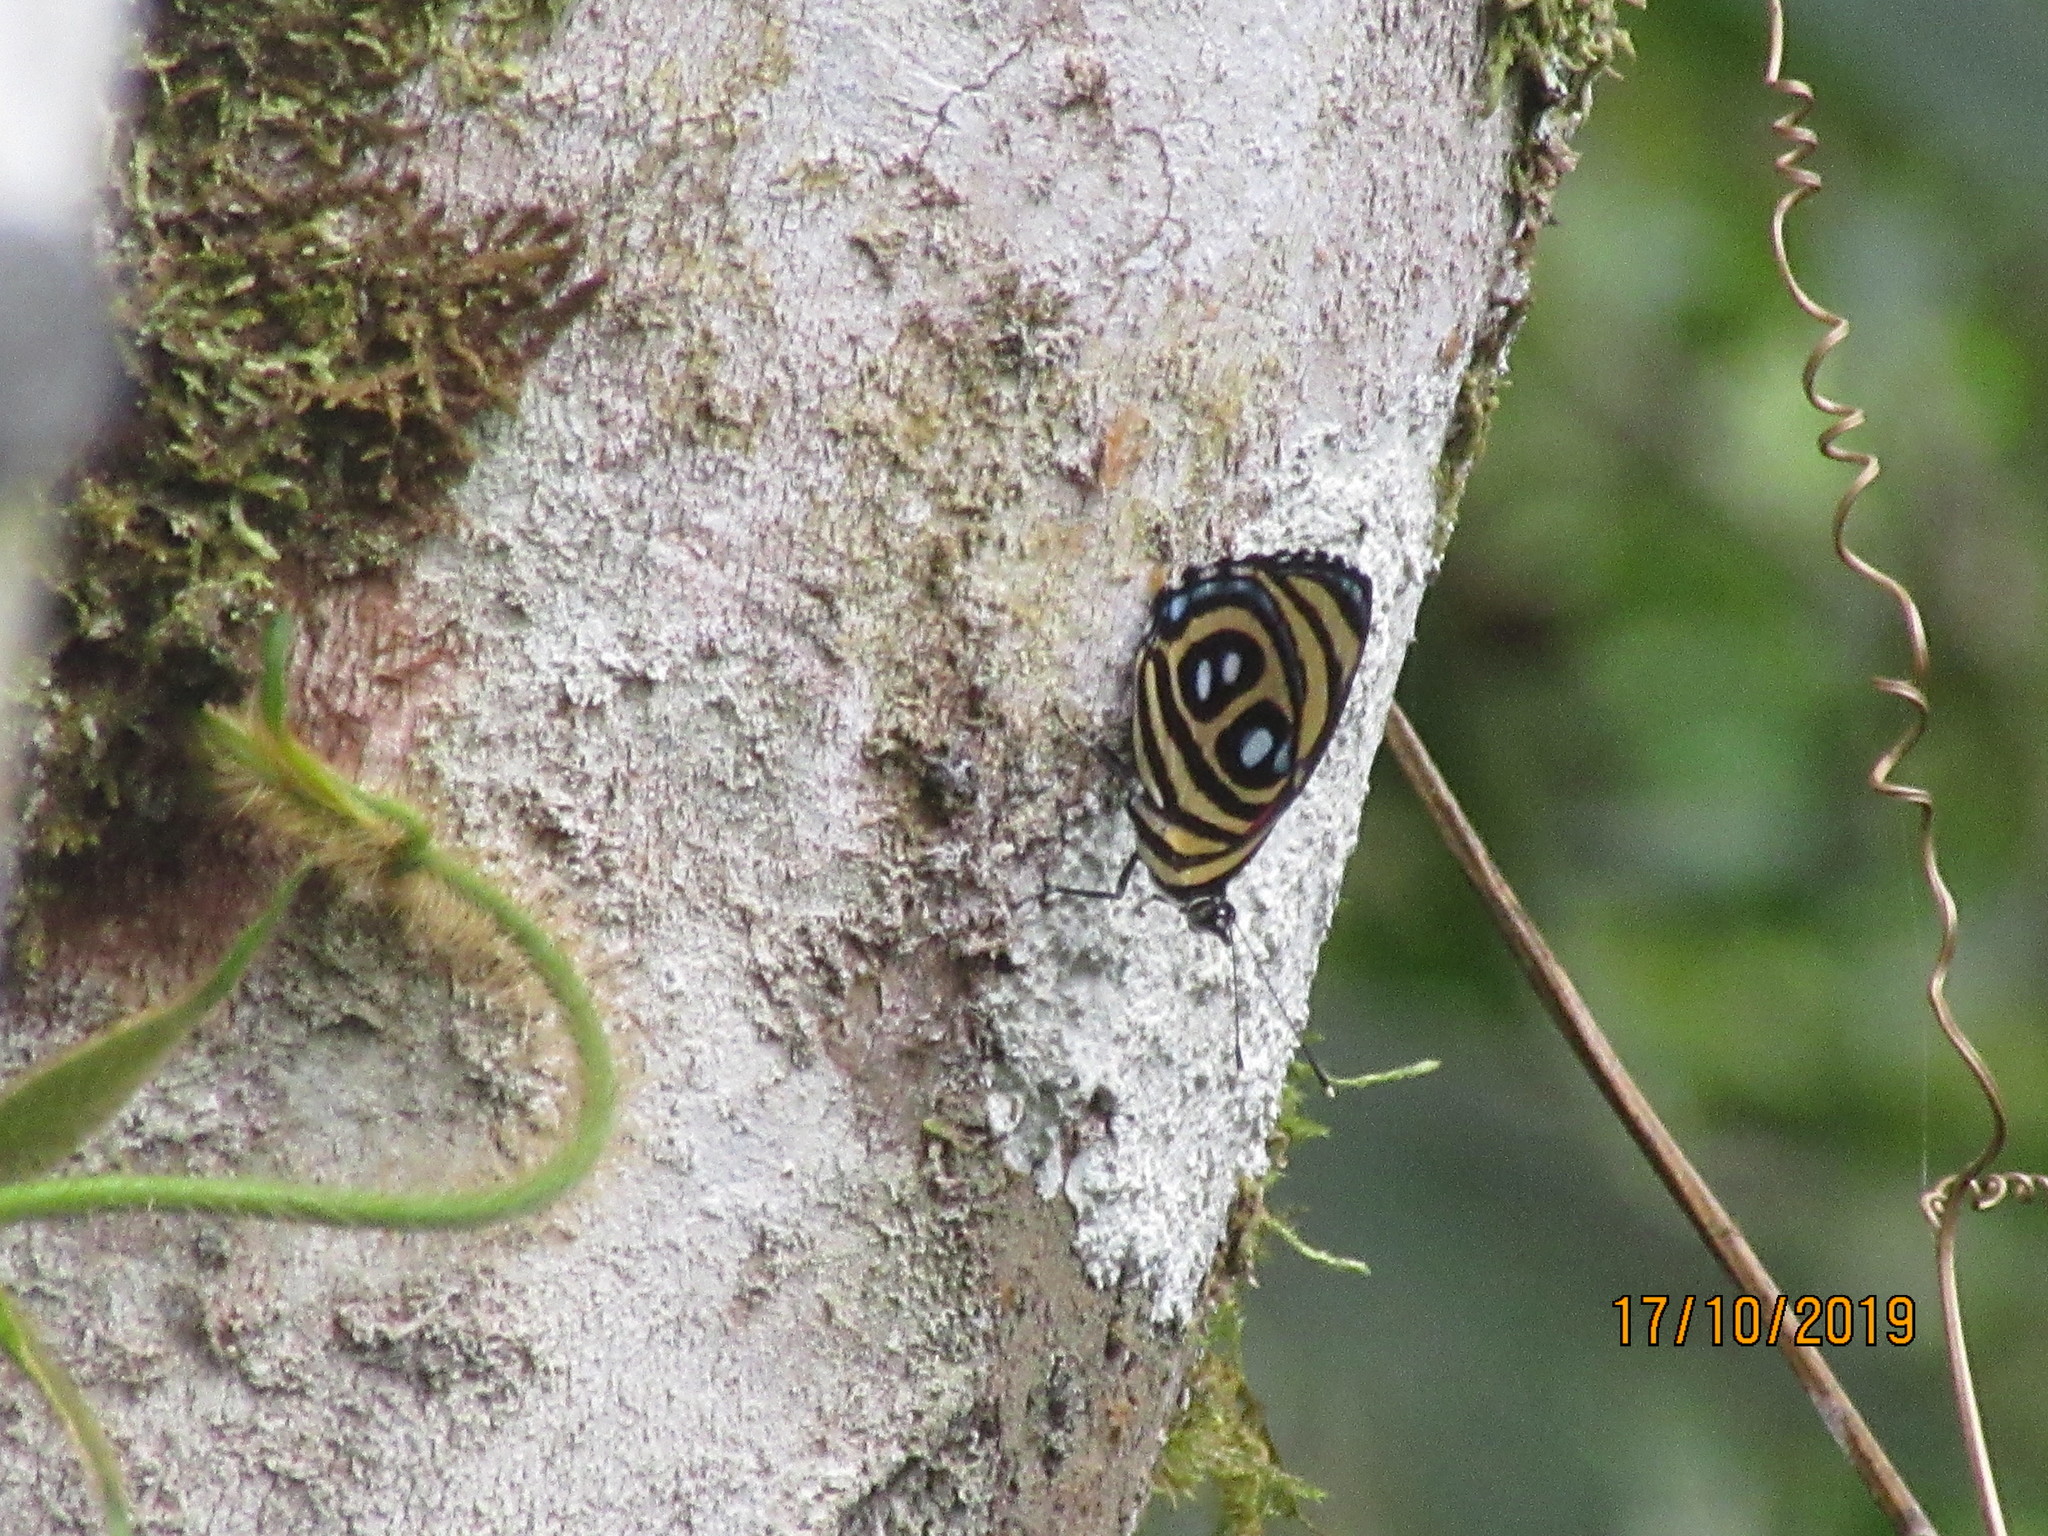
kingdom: Animalia
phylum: Arthropoda
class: Insecta
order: Lepidoptera
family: Nymphalidae
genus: Catagramma
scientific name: Catagramma pyracmon
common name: Google-eyed eighty-eight
